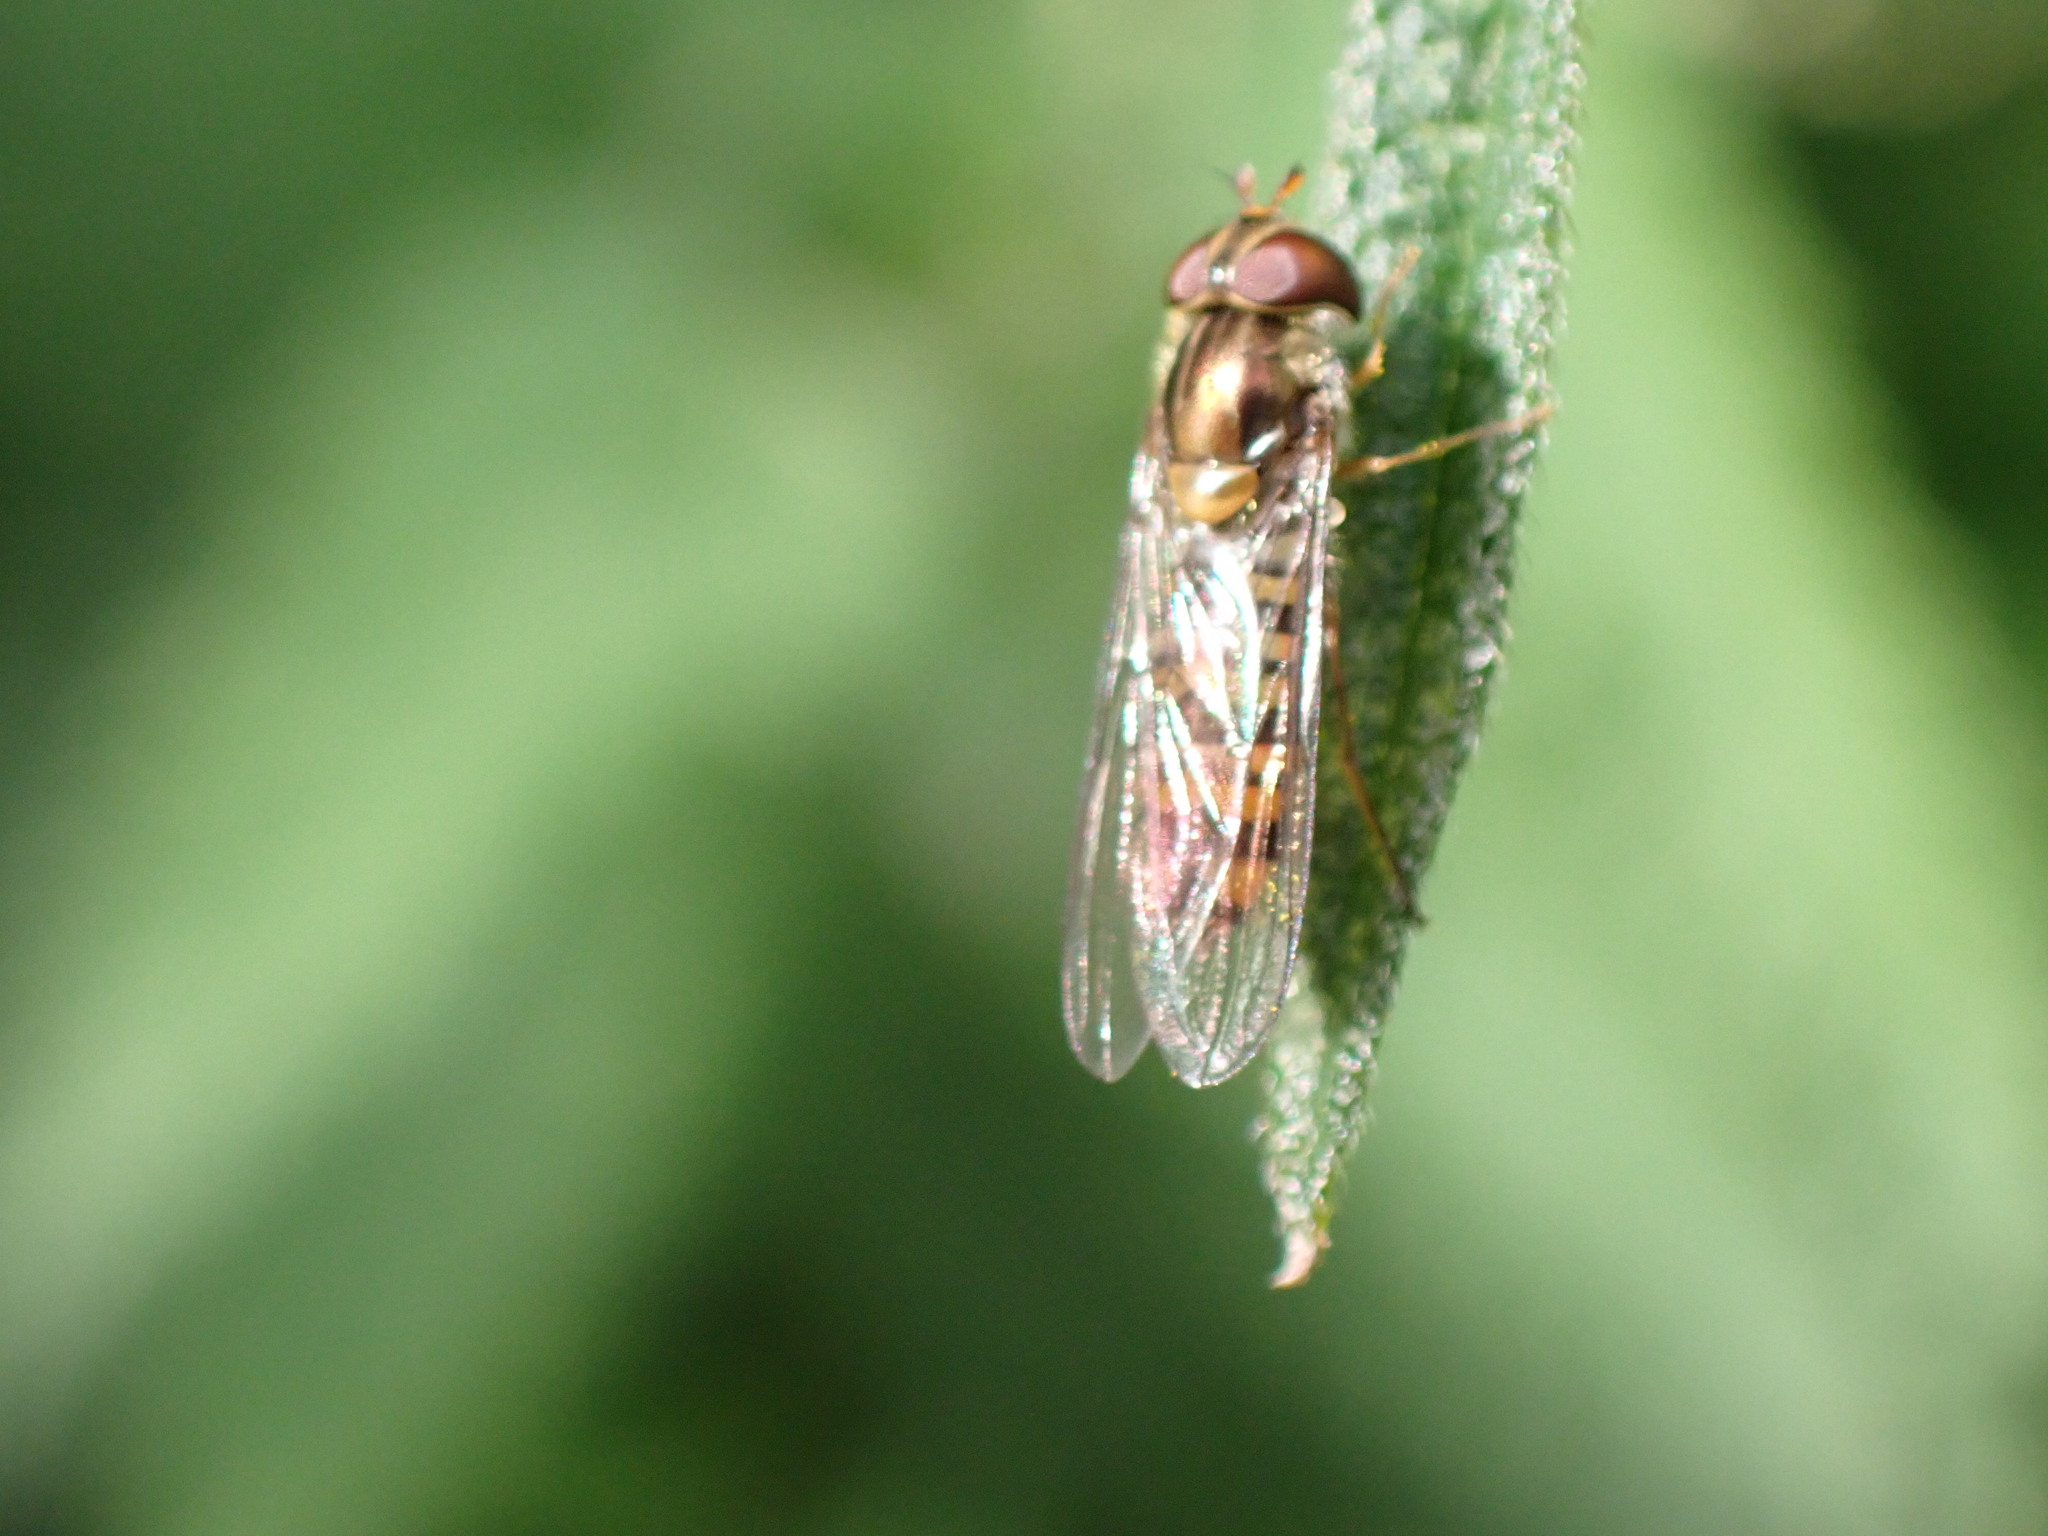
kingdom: Animalia
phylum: Arthropoda
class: Insecta
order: Diptera
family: Syrphidae
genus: Episyrphus
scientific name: Episyrphus balteatus
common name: Marmalade hoverfly
